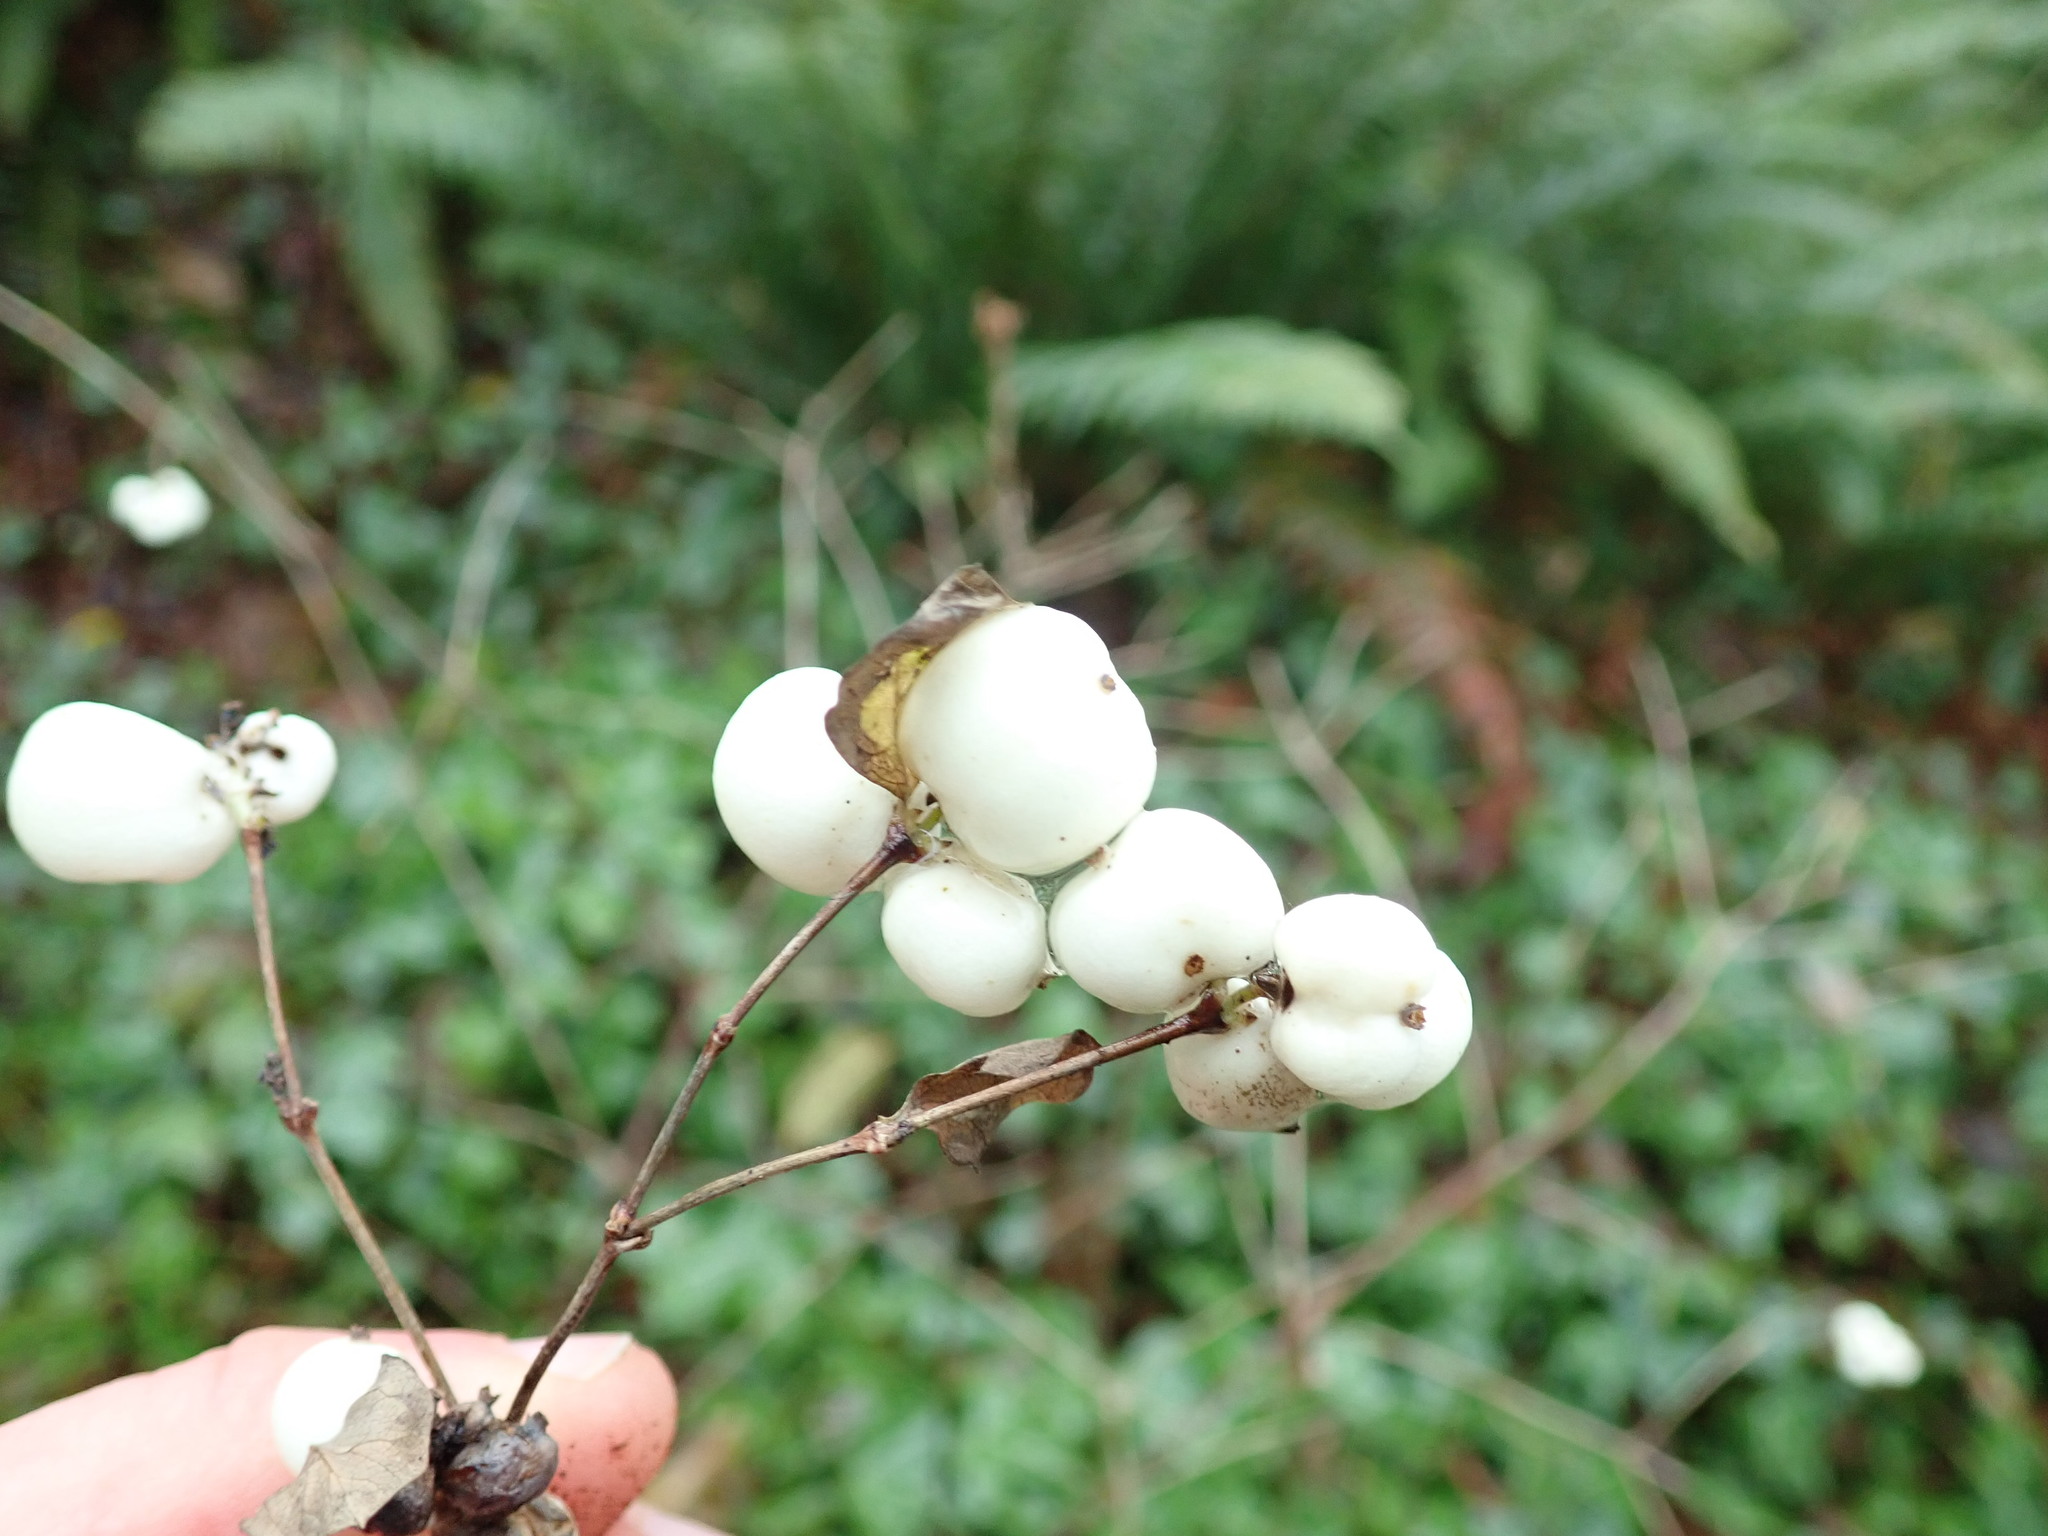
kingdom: Plantae
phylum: Tracheophyta
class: Magnoliopsida
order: Dipsacales
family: Caprifoliaceae
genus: Symphoricarpos
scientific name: Symphoricarpos albus
